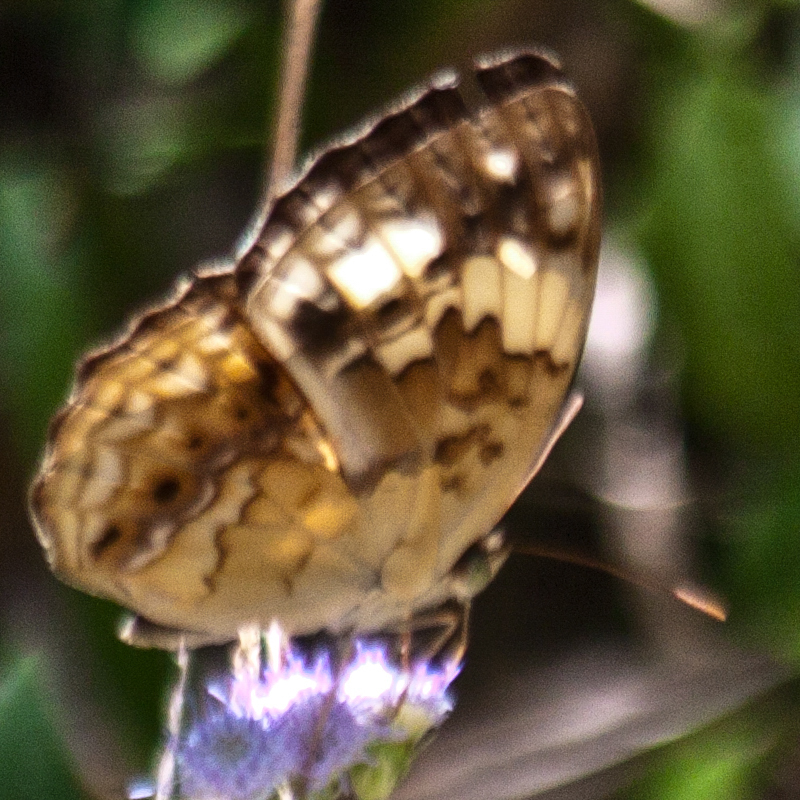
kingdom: Animalia
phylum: Arthropoda
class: Insecta
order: Lepidoptera
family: Nymphalidae
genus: Cupha
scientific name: Cupha erymanthis
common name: Rustic
